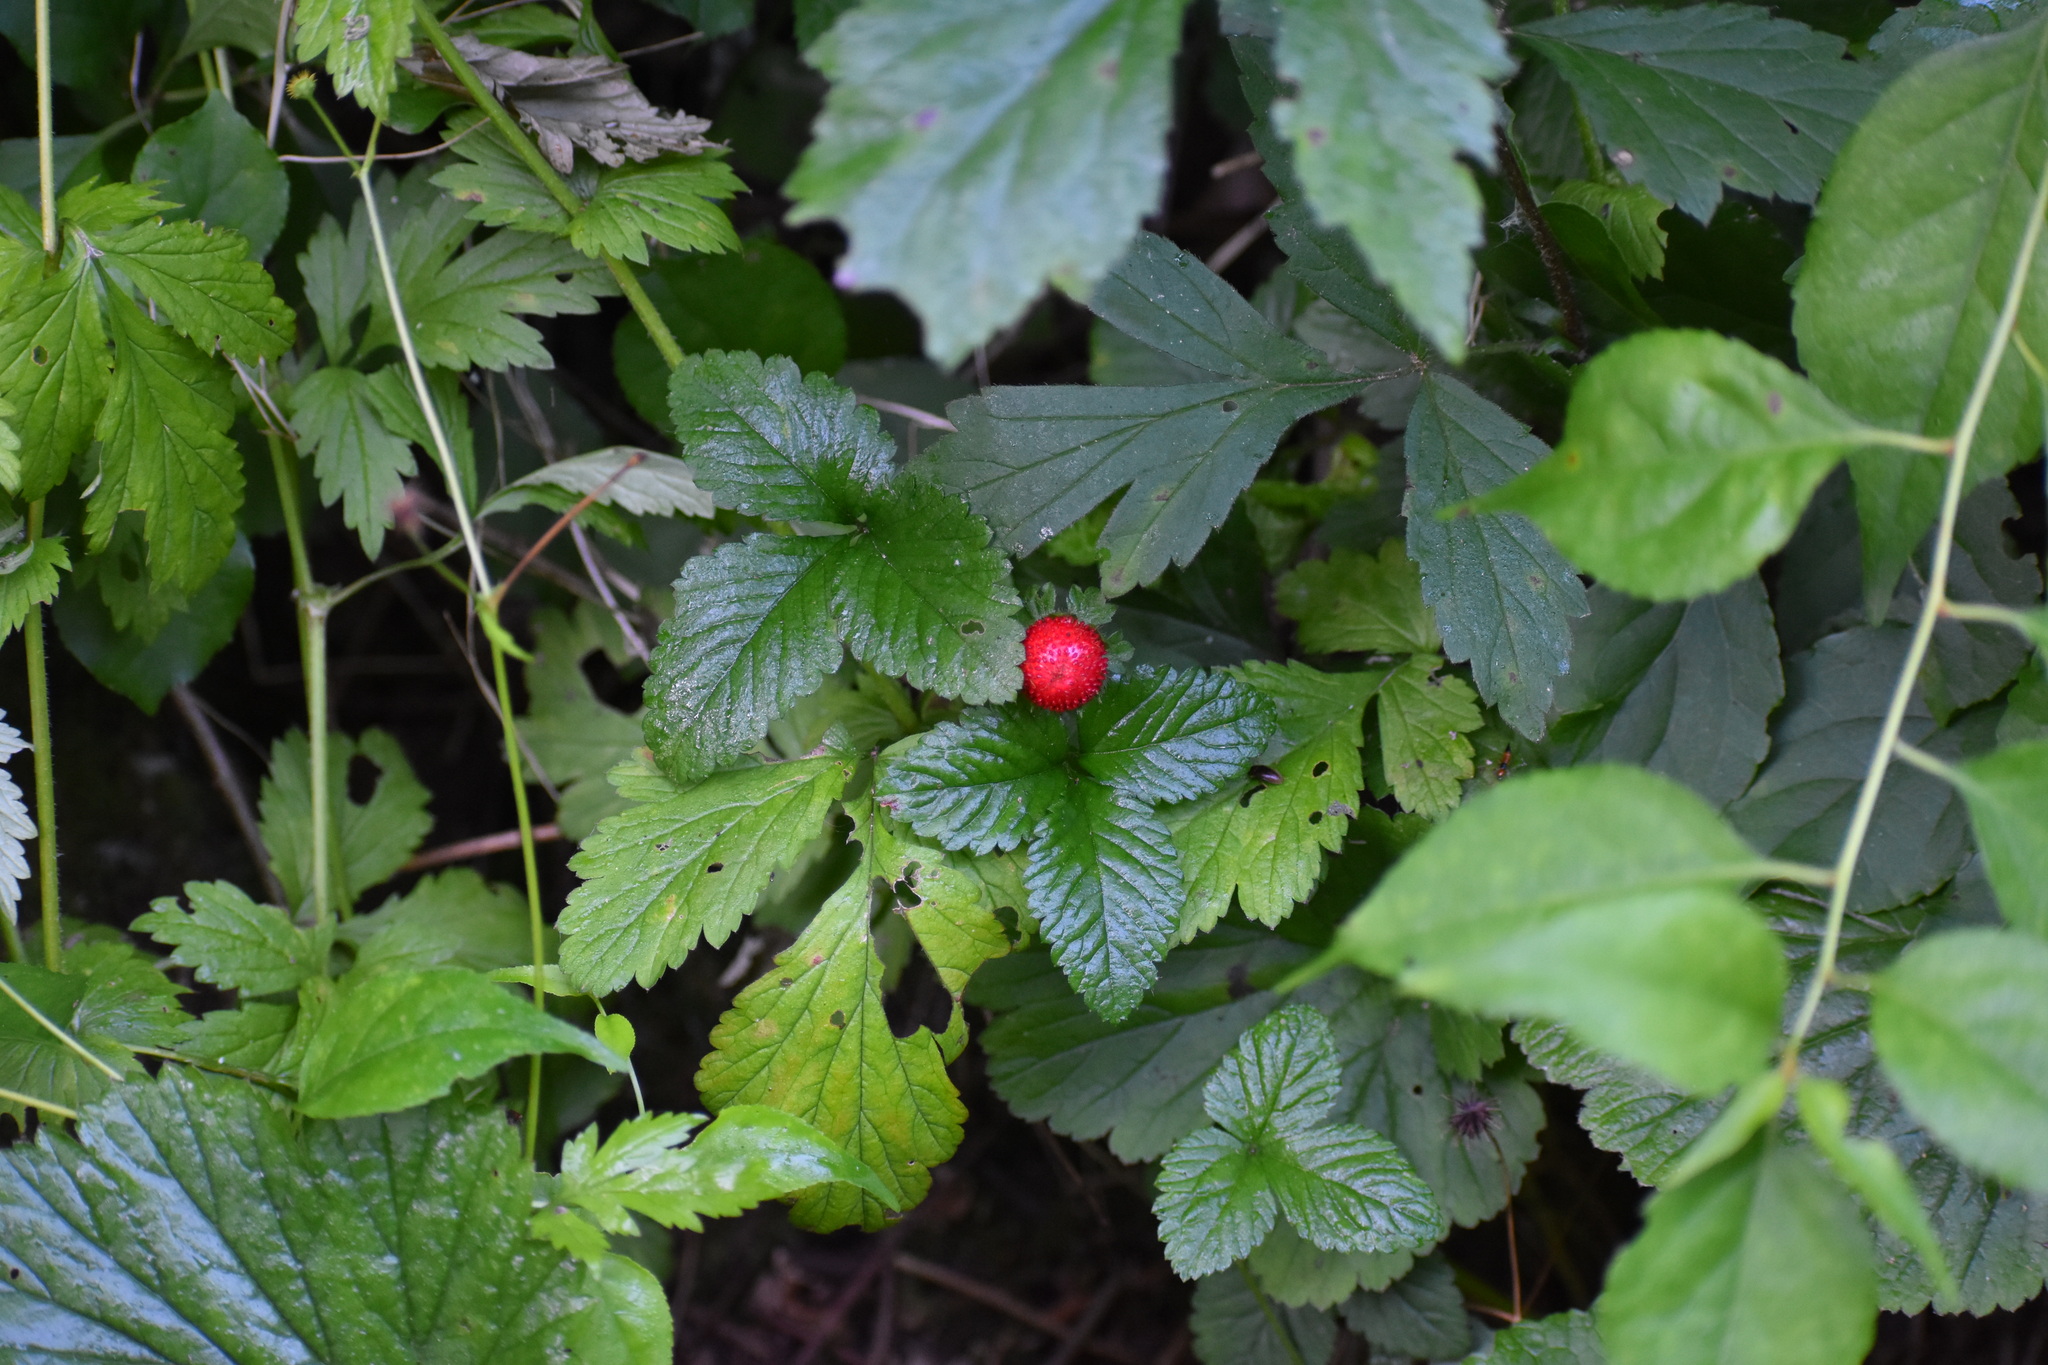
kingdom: Plantae
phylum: Tracheophyta
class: Magnoliopsida
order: Rosales
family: Rosaceae
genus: Potentilla
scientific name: Potentilla indica
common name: Yellow-flowered strawberry
